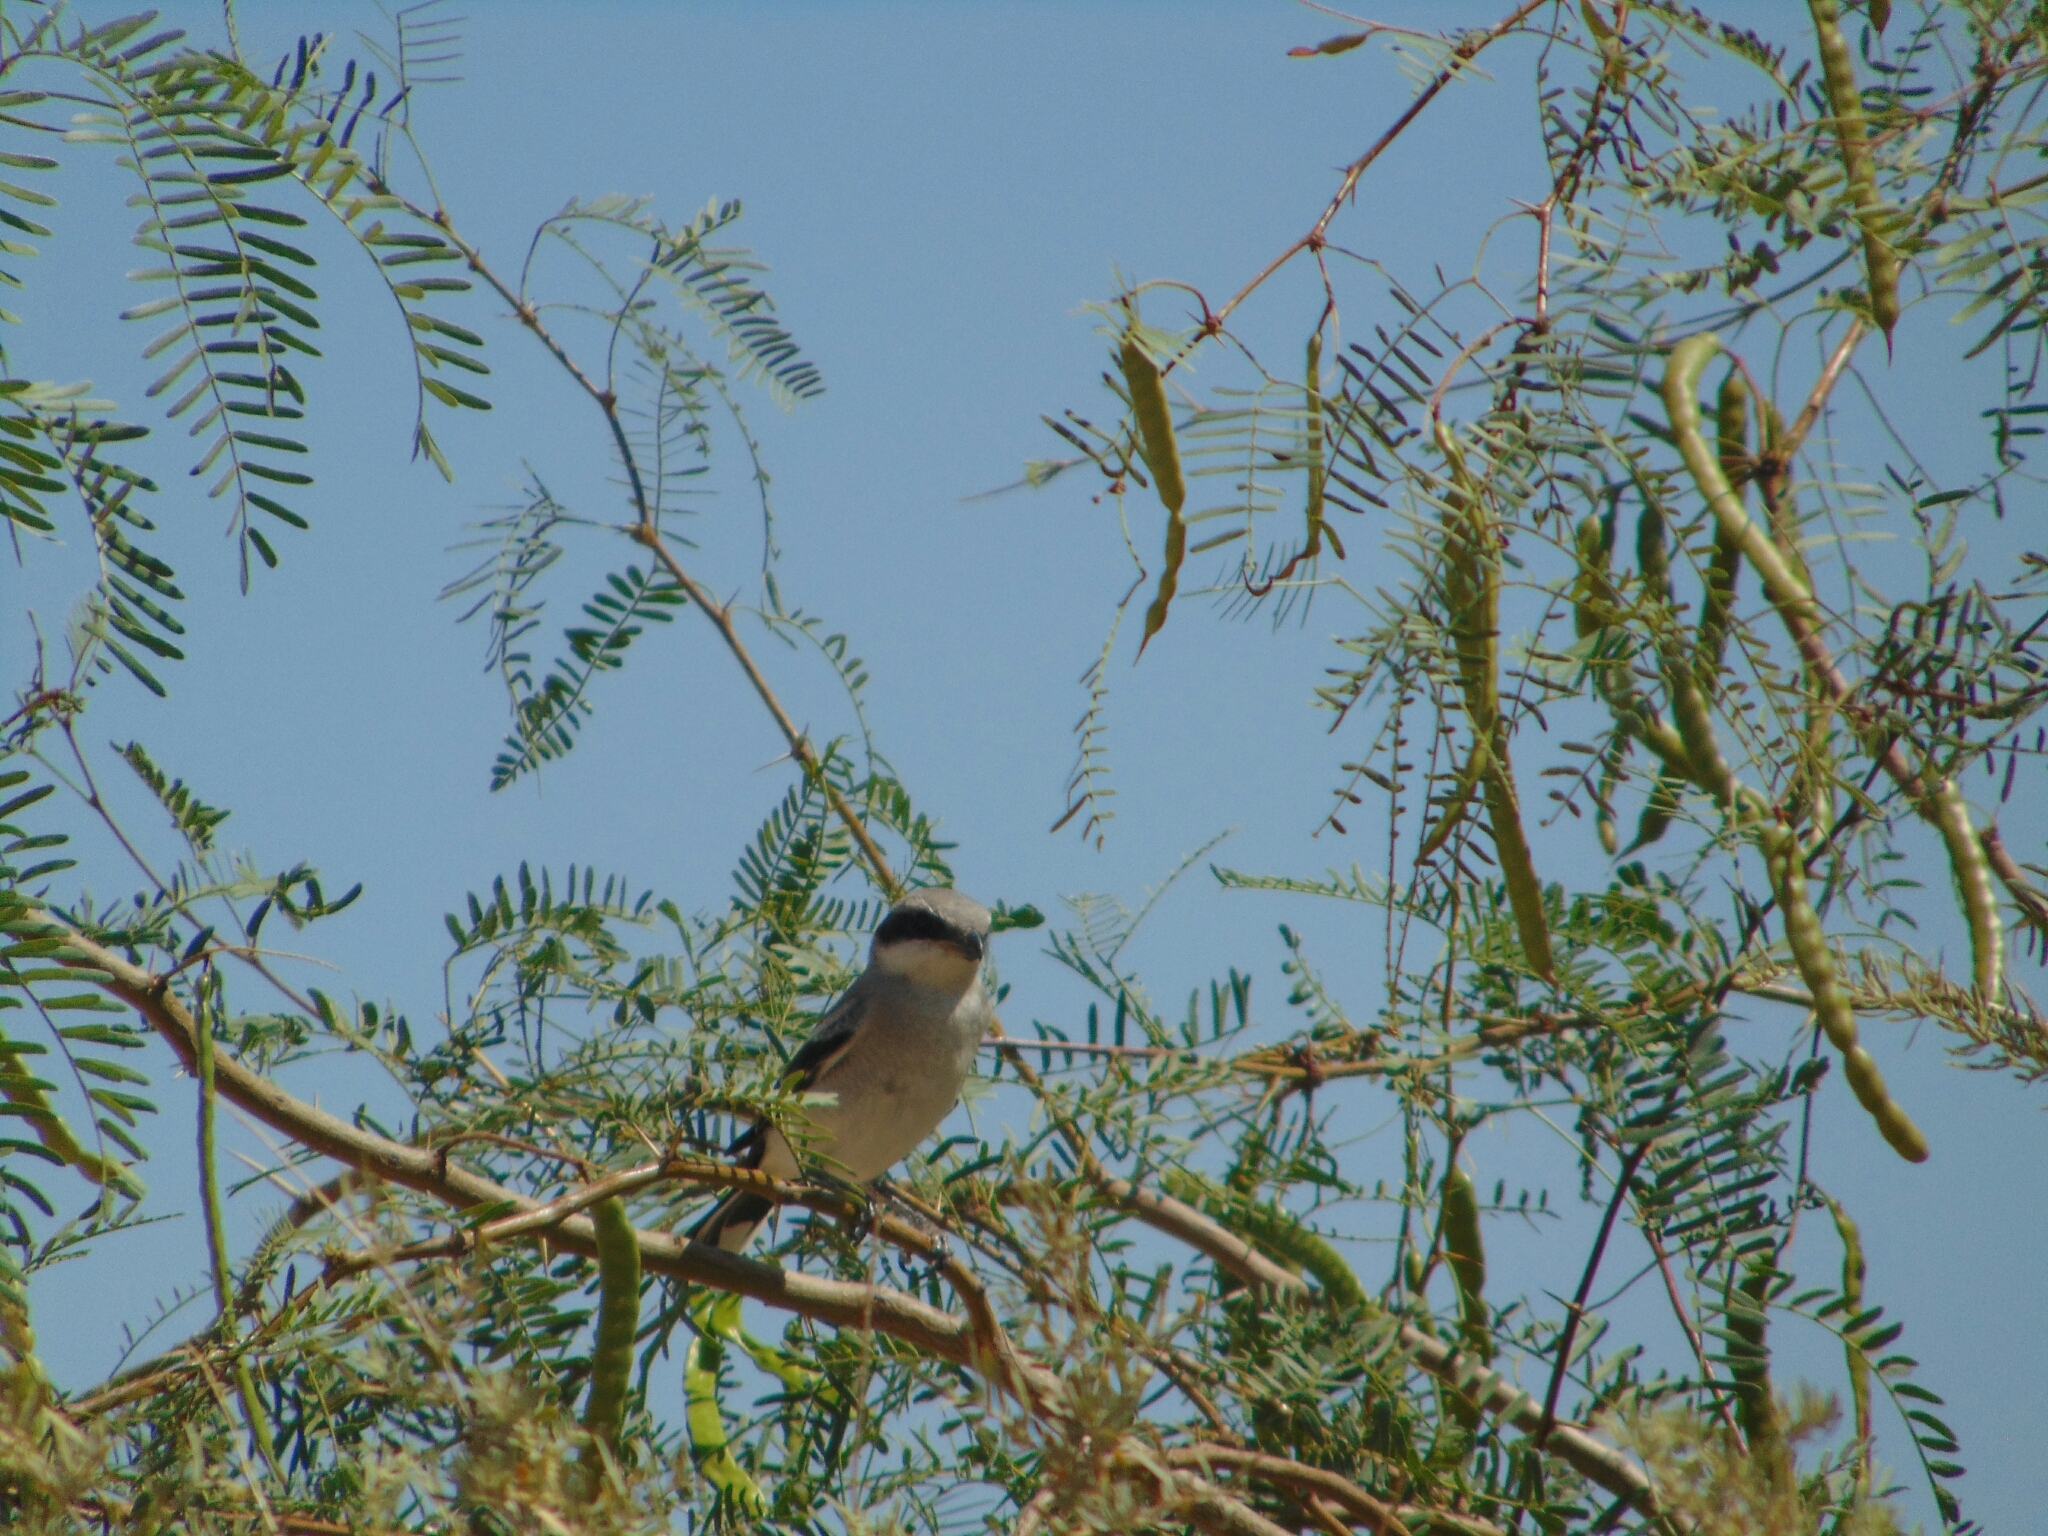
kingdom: Animalia
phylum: Chordata
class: Aves
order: Passeriformes
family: Laniidae
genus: Lanius
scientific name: Lanius ludovicianus
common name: Loggerhead shrike
